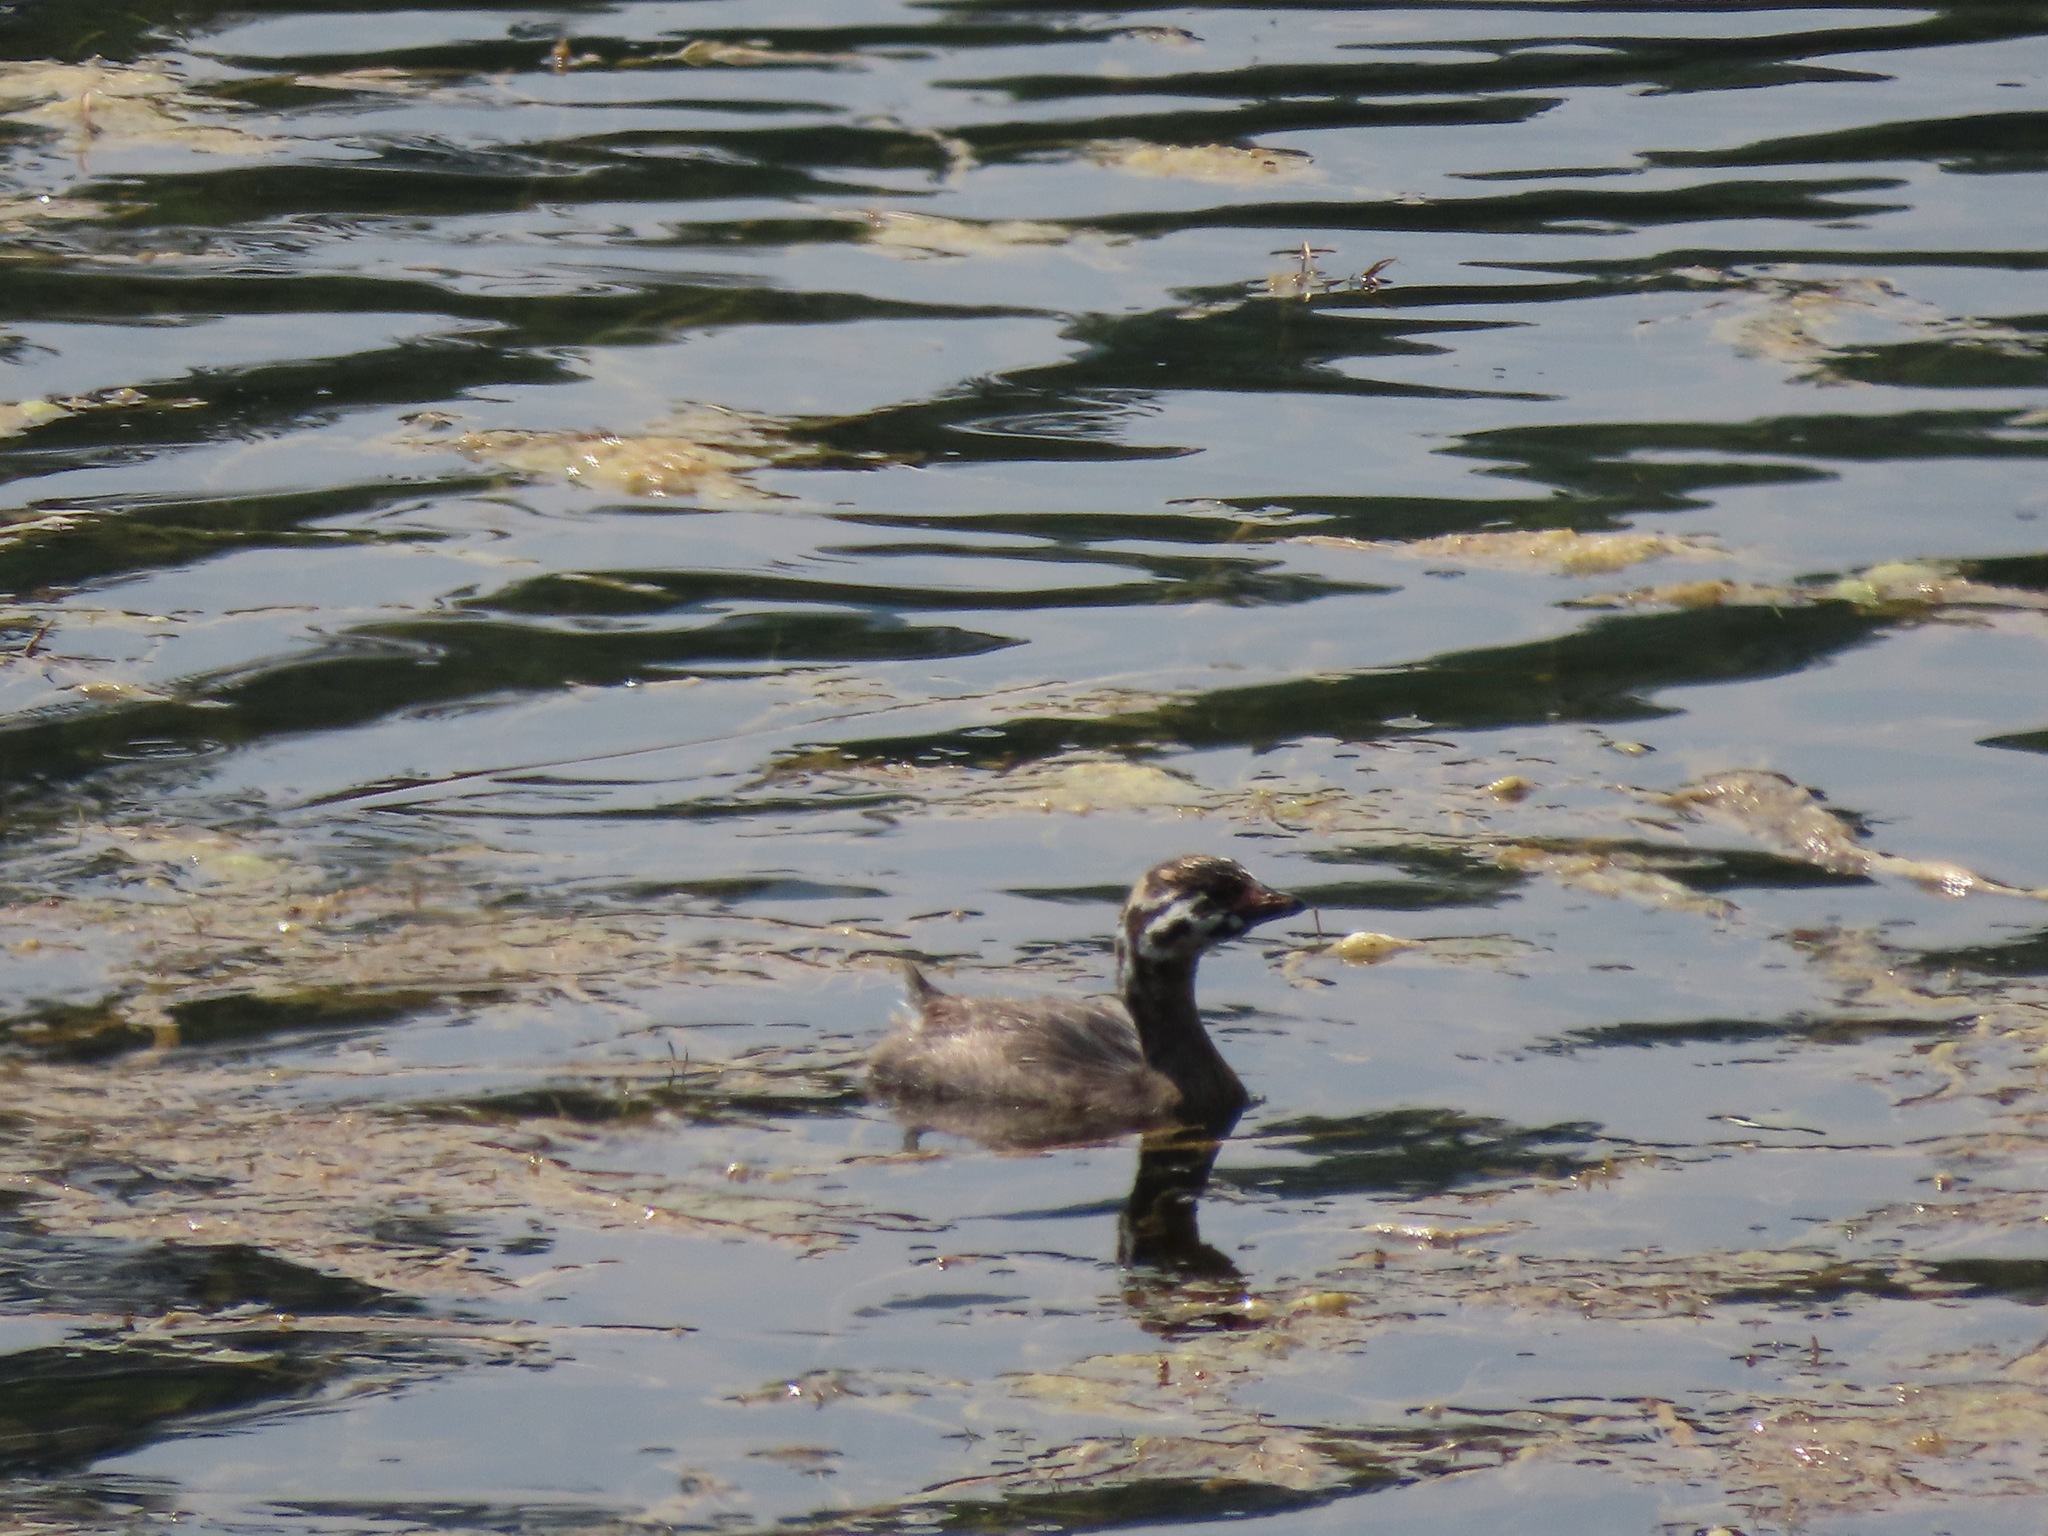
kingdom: Animalia
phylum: Chordata
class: Aves
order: Podicipediformes
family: Podicipedidae
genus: Podilymbus
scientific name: Podilymbus podiceps
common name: Pied-billed grebe
